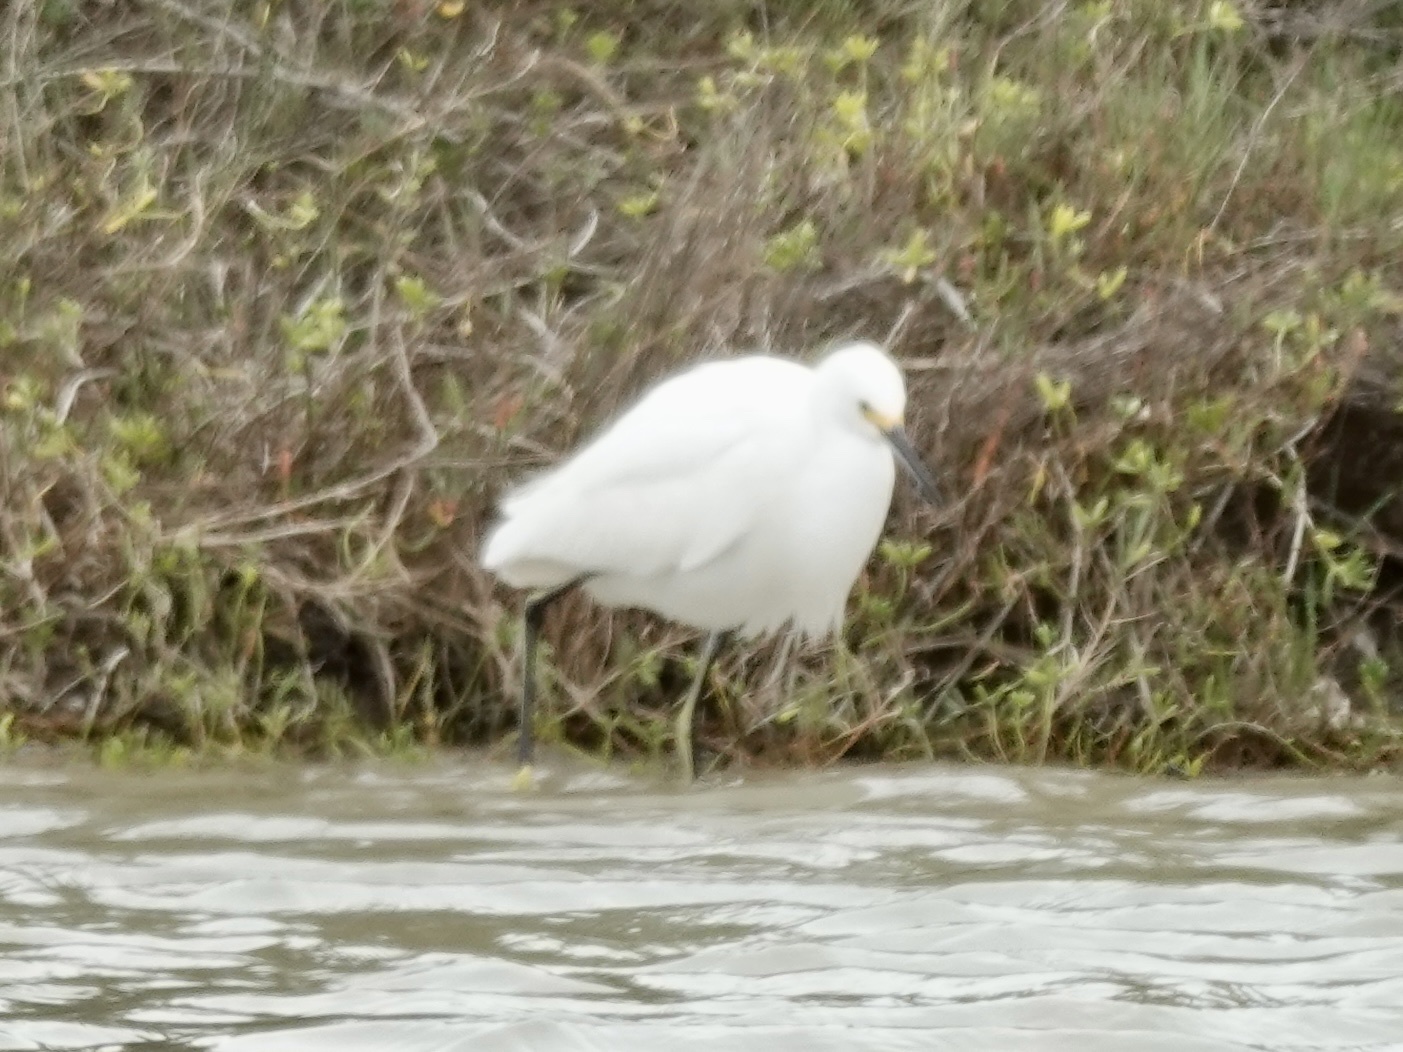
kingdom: Animalia
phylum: Chordata
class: Aves
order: Pelecaniformes
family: Ardeidae
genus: Egretta
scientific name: Egretta thula
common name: Snowy egret
